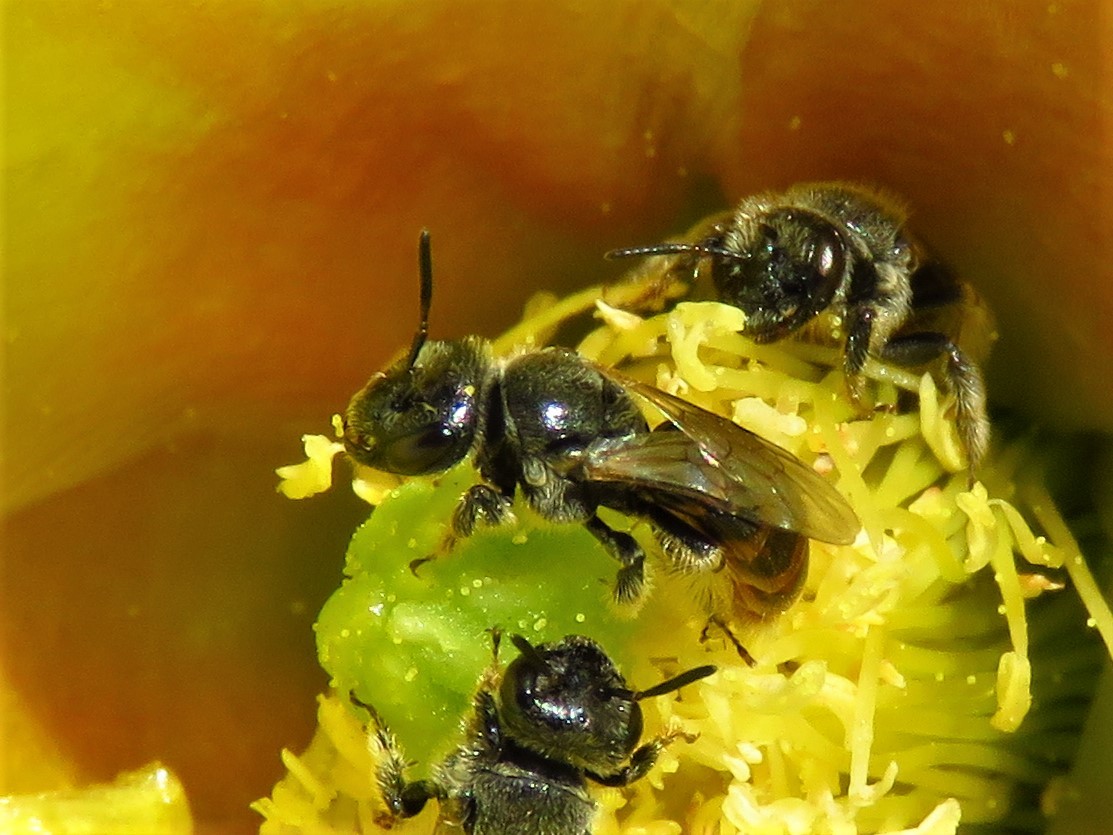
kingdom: Animalia
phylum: Arthropoda
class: Insecta
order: Hymenoptera
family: Andrenidae
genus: Macrotera
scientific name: Macrotera
